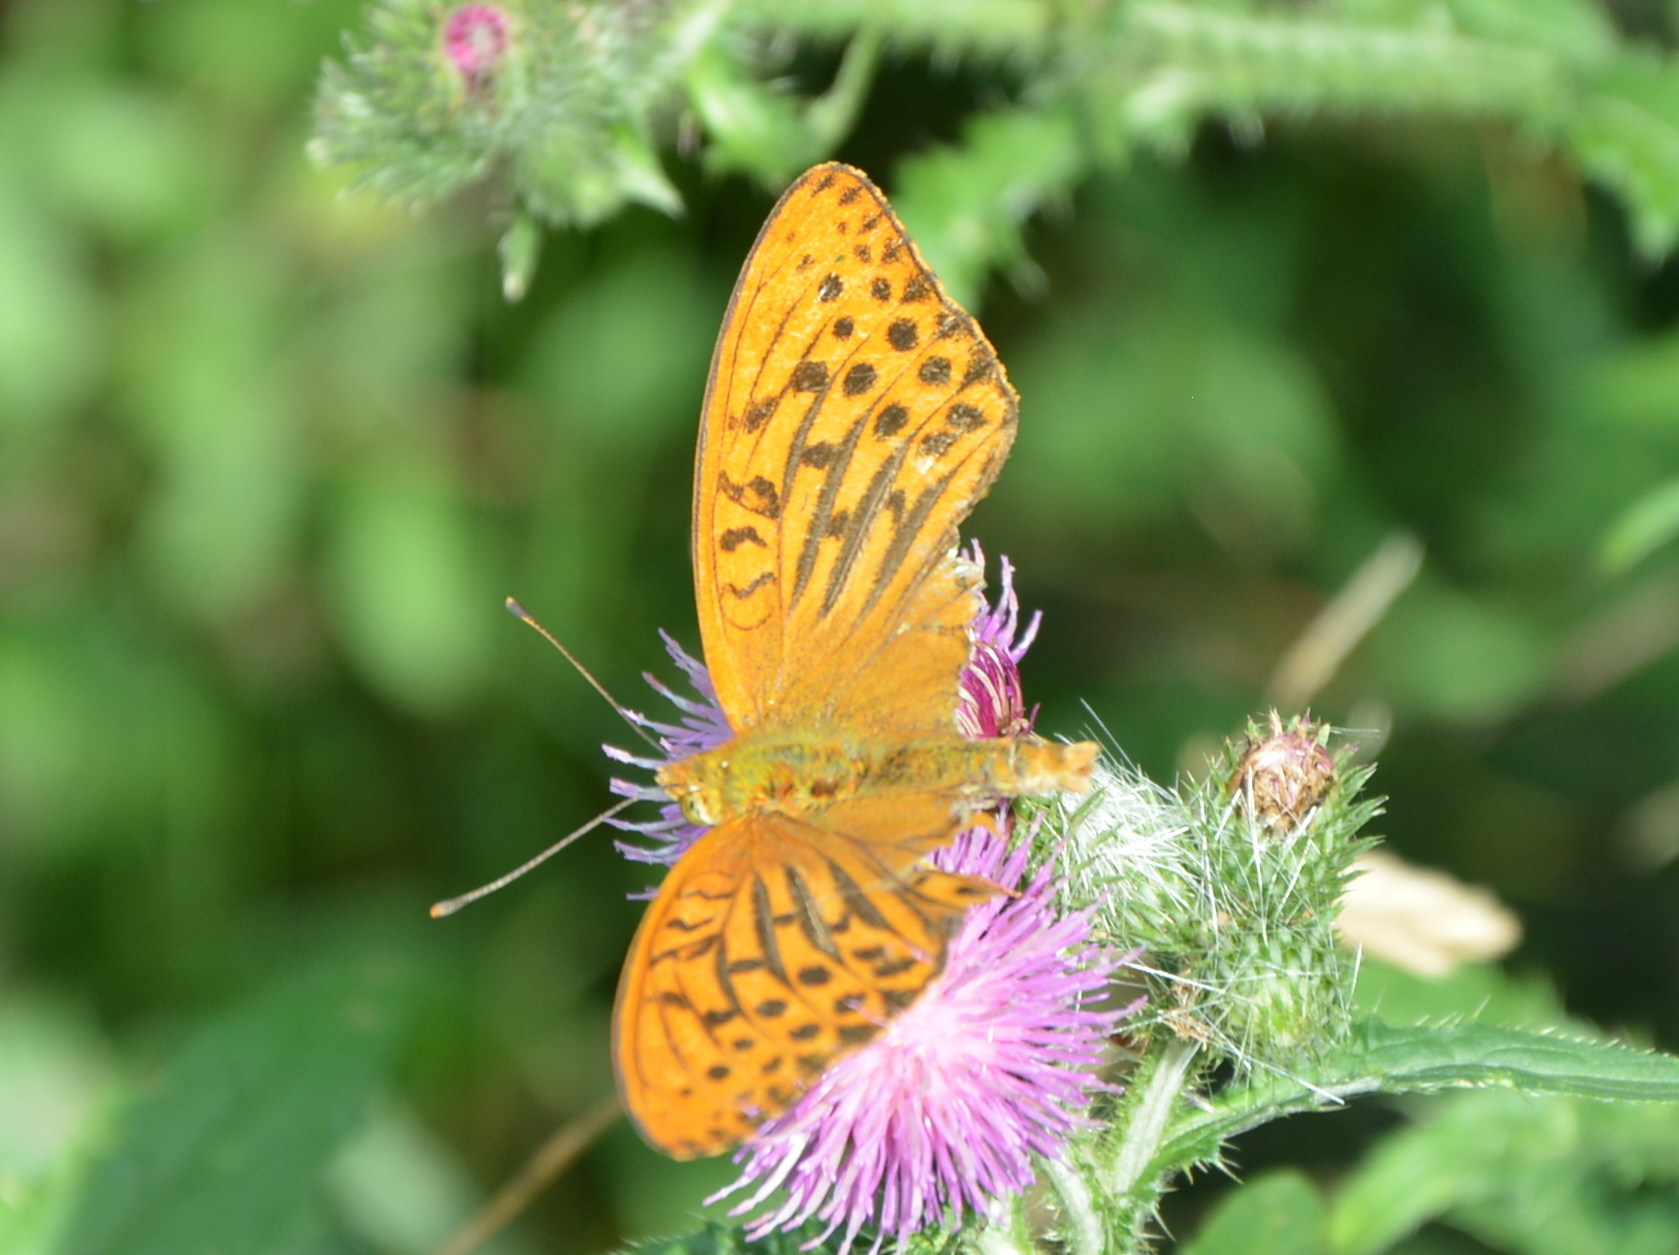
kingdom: Animalia
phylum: Arthropoda
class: Insecta
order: Lepidoptera
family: Nymphalidae
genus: Argynnis
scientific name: Argynnis paphia
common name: Silver-washed fritillary
